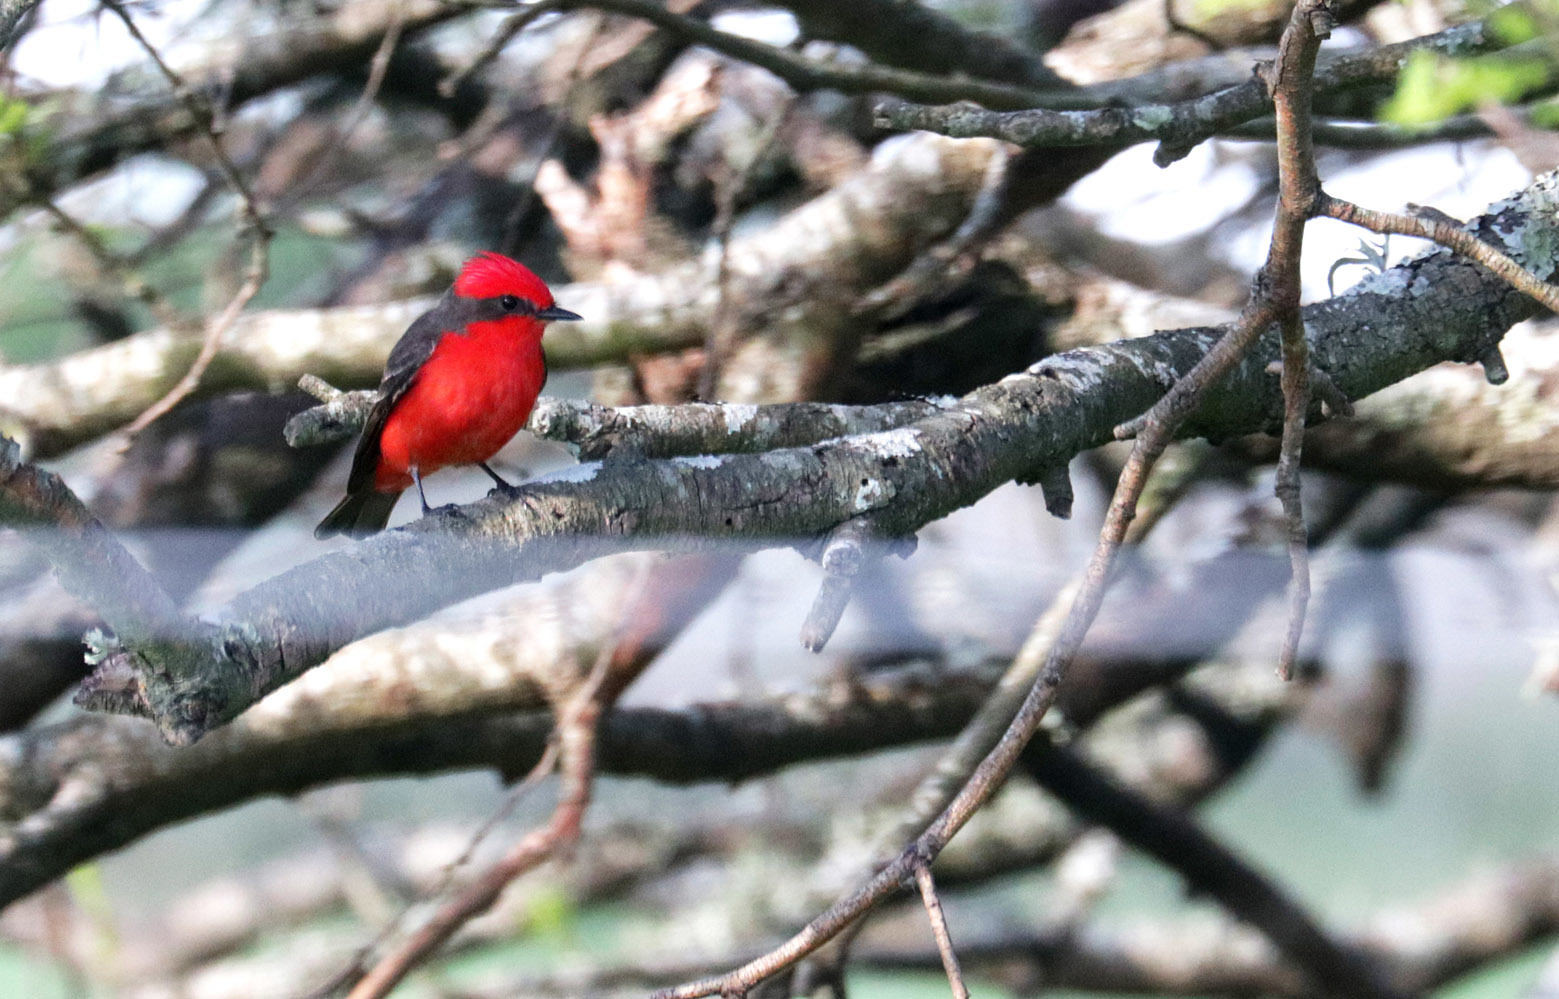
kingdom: Animalia
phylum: Chordata
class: Aves
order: Passeriformes
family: Tyrannidae
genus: Pyrocephalus
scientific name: Pyrocephalus rubinus
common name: Vermilion flycatcher
